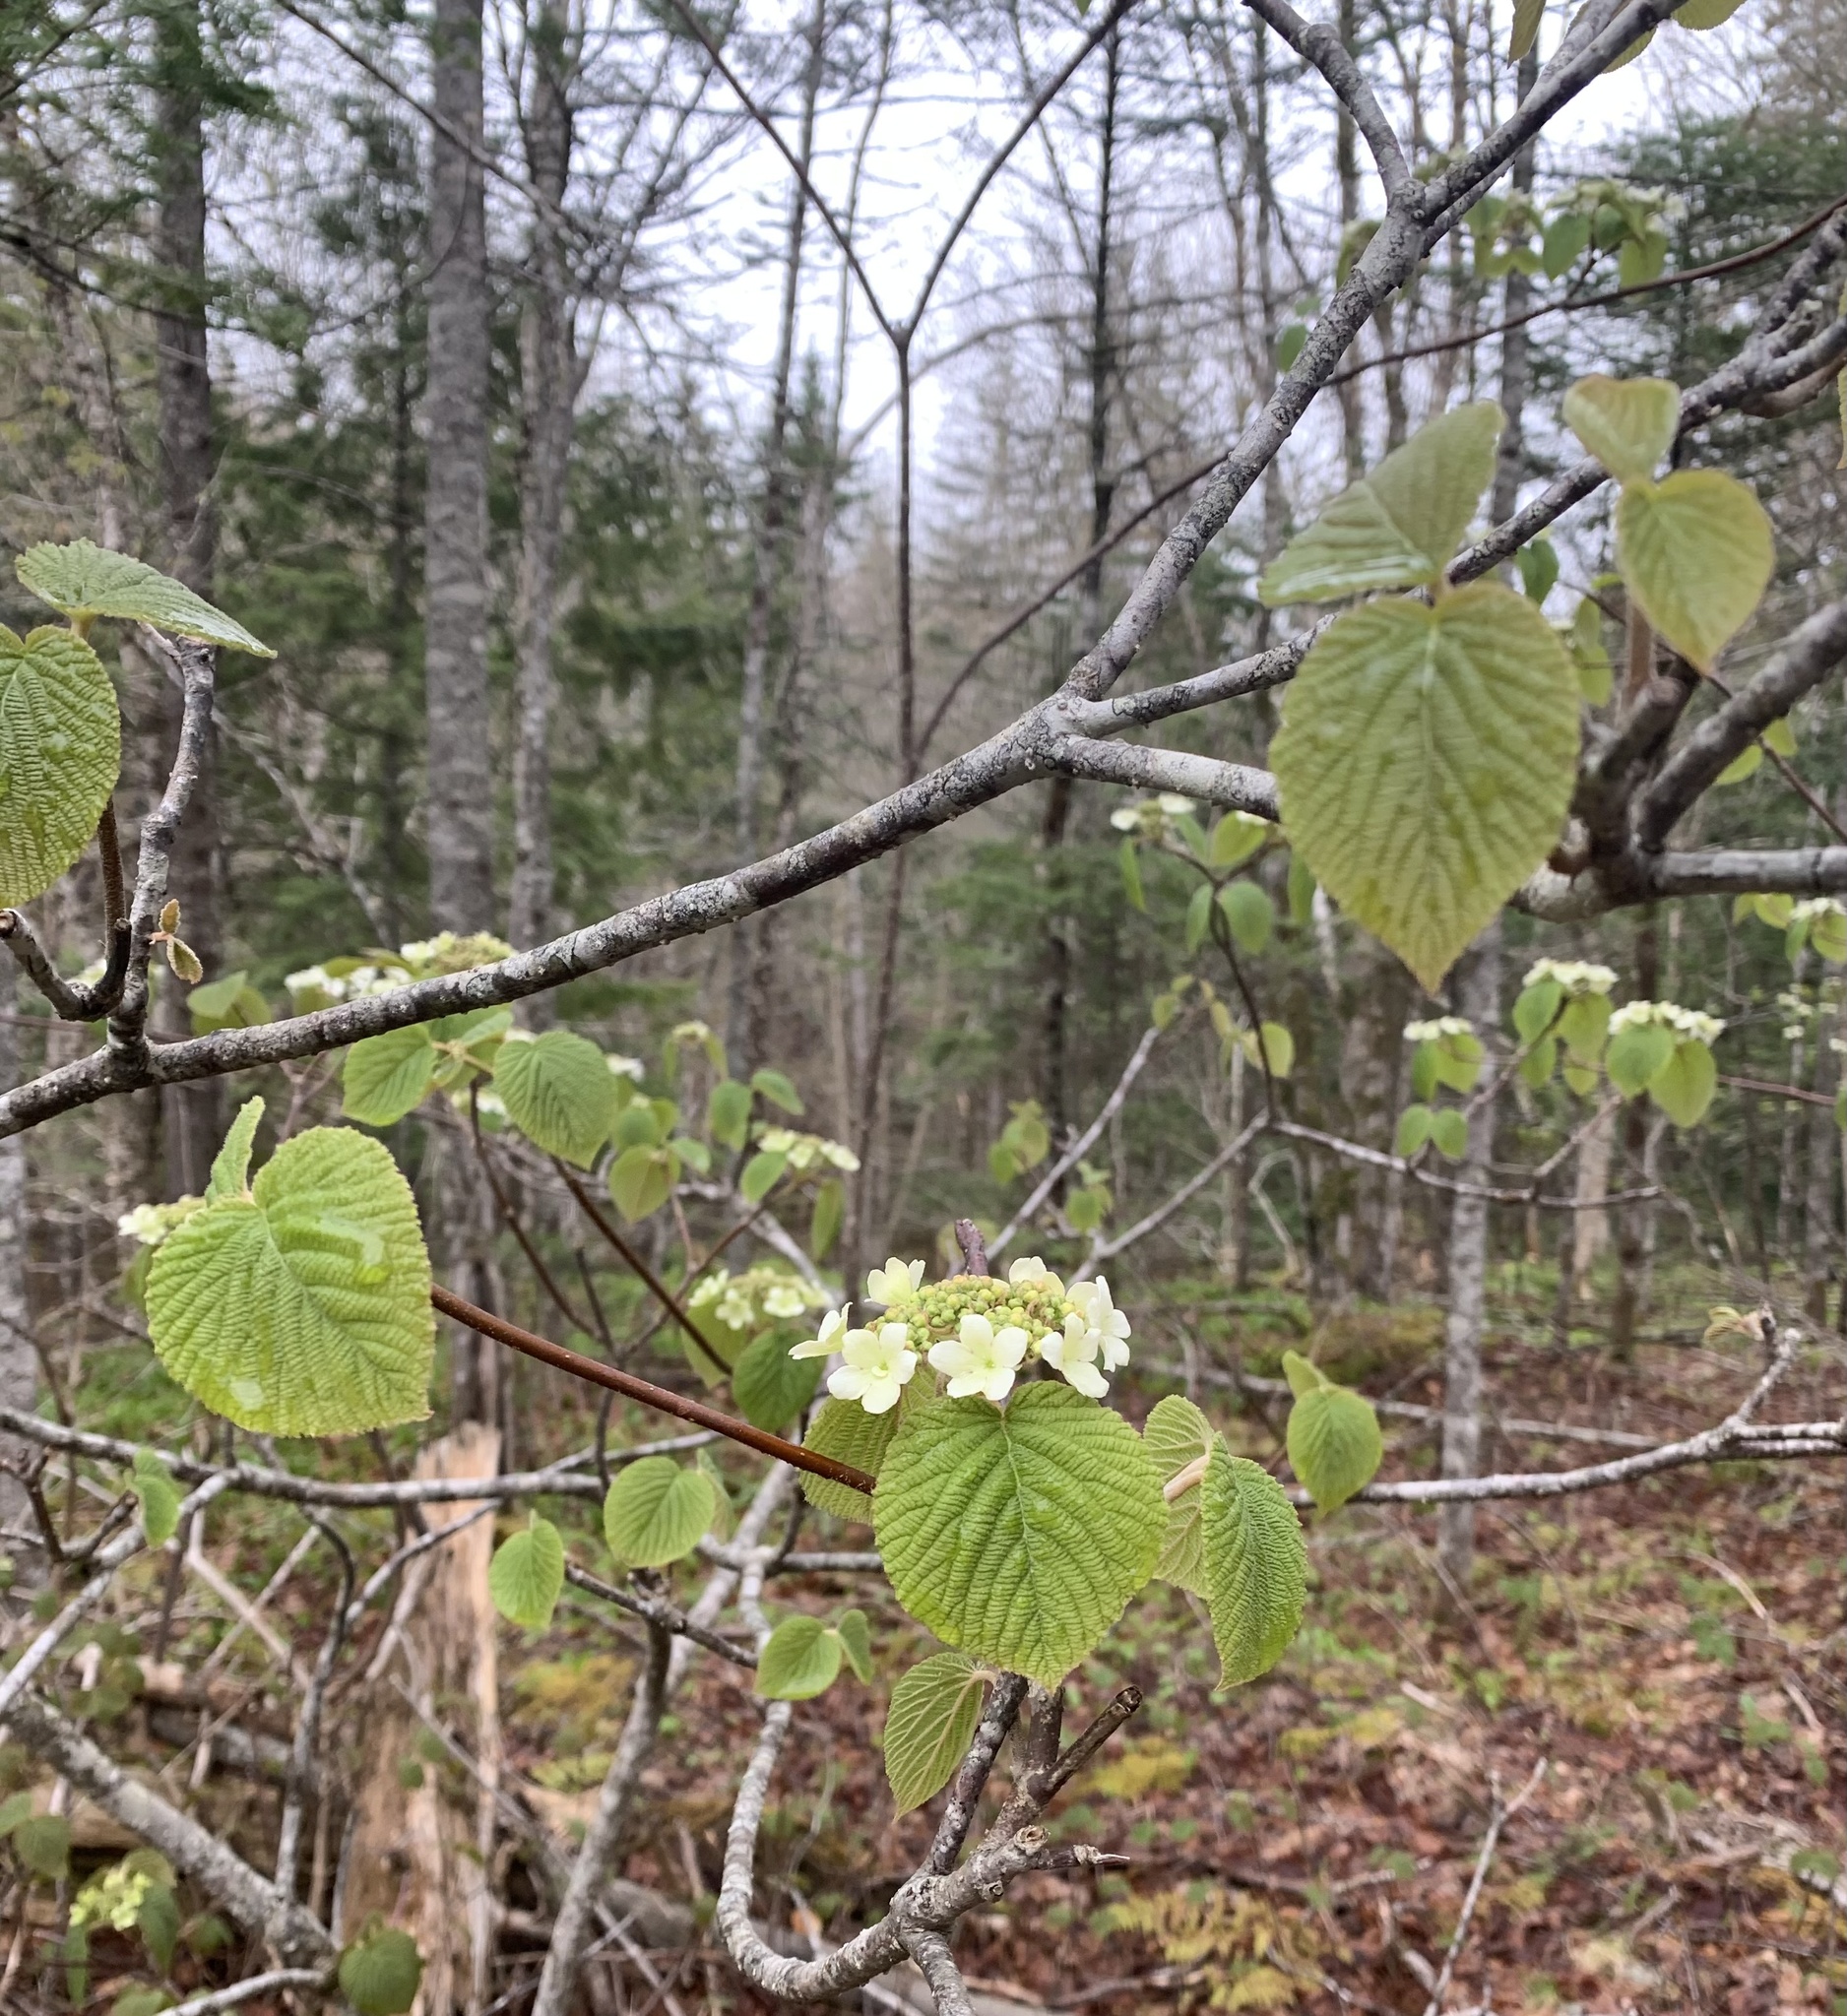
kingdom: Plantae
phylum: Tracheophyta
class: Magnoliopsida
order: Dipsacales
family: Viburnaceae
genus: Viburnum
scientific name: Viburnum lantanoides
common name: Hobblebush
